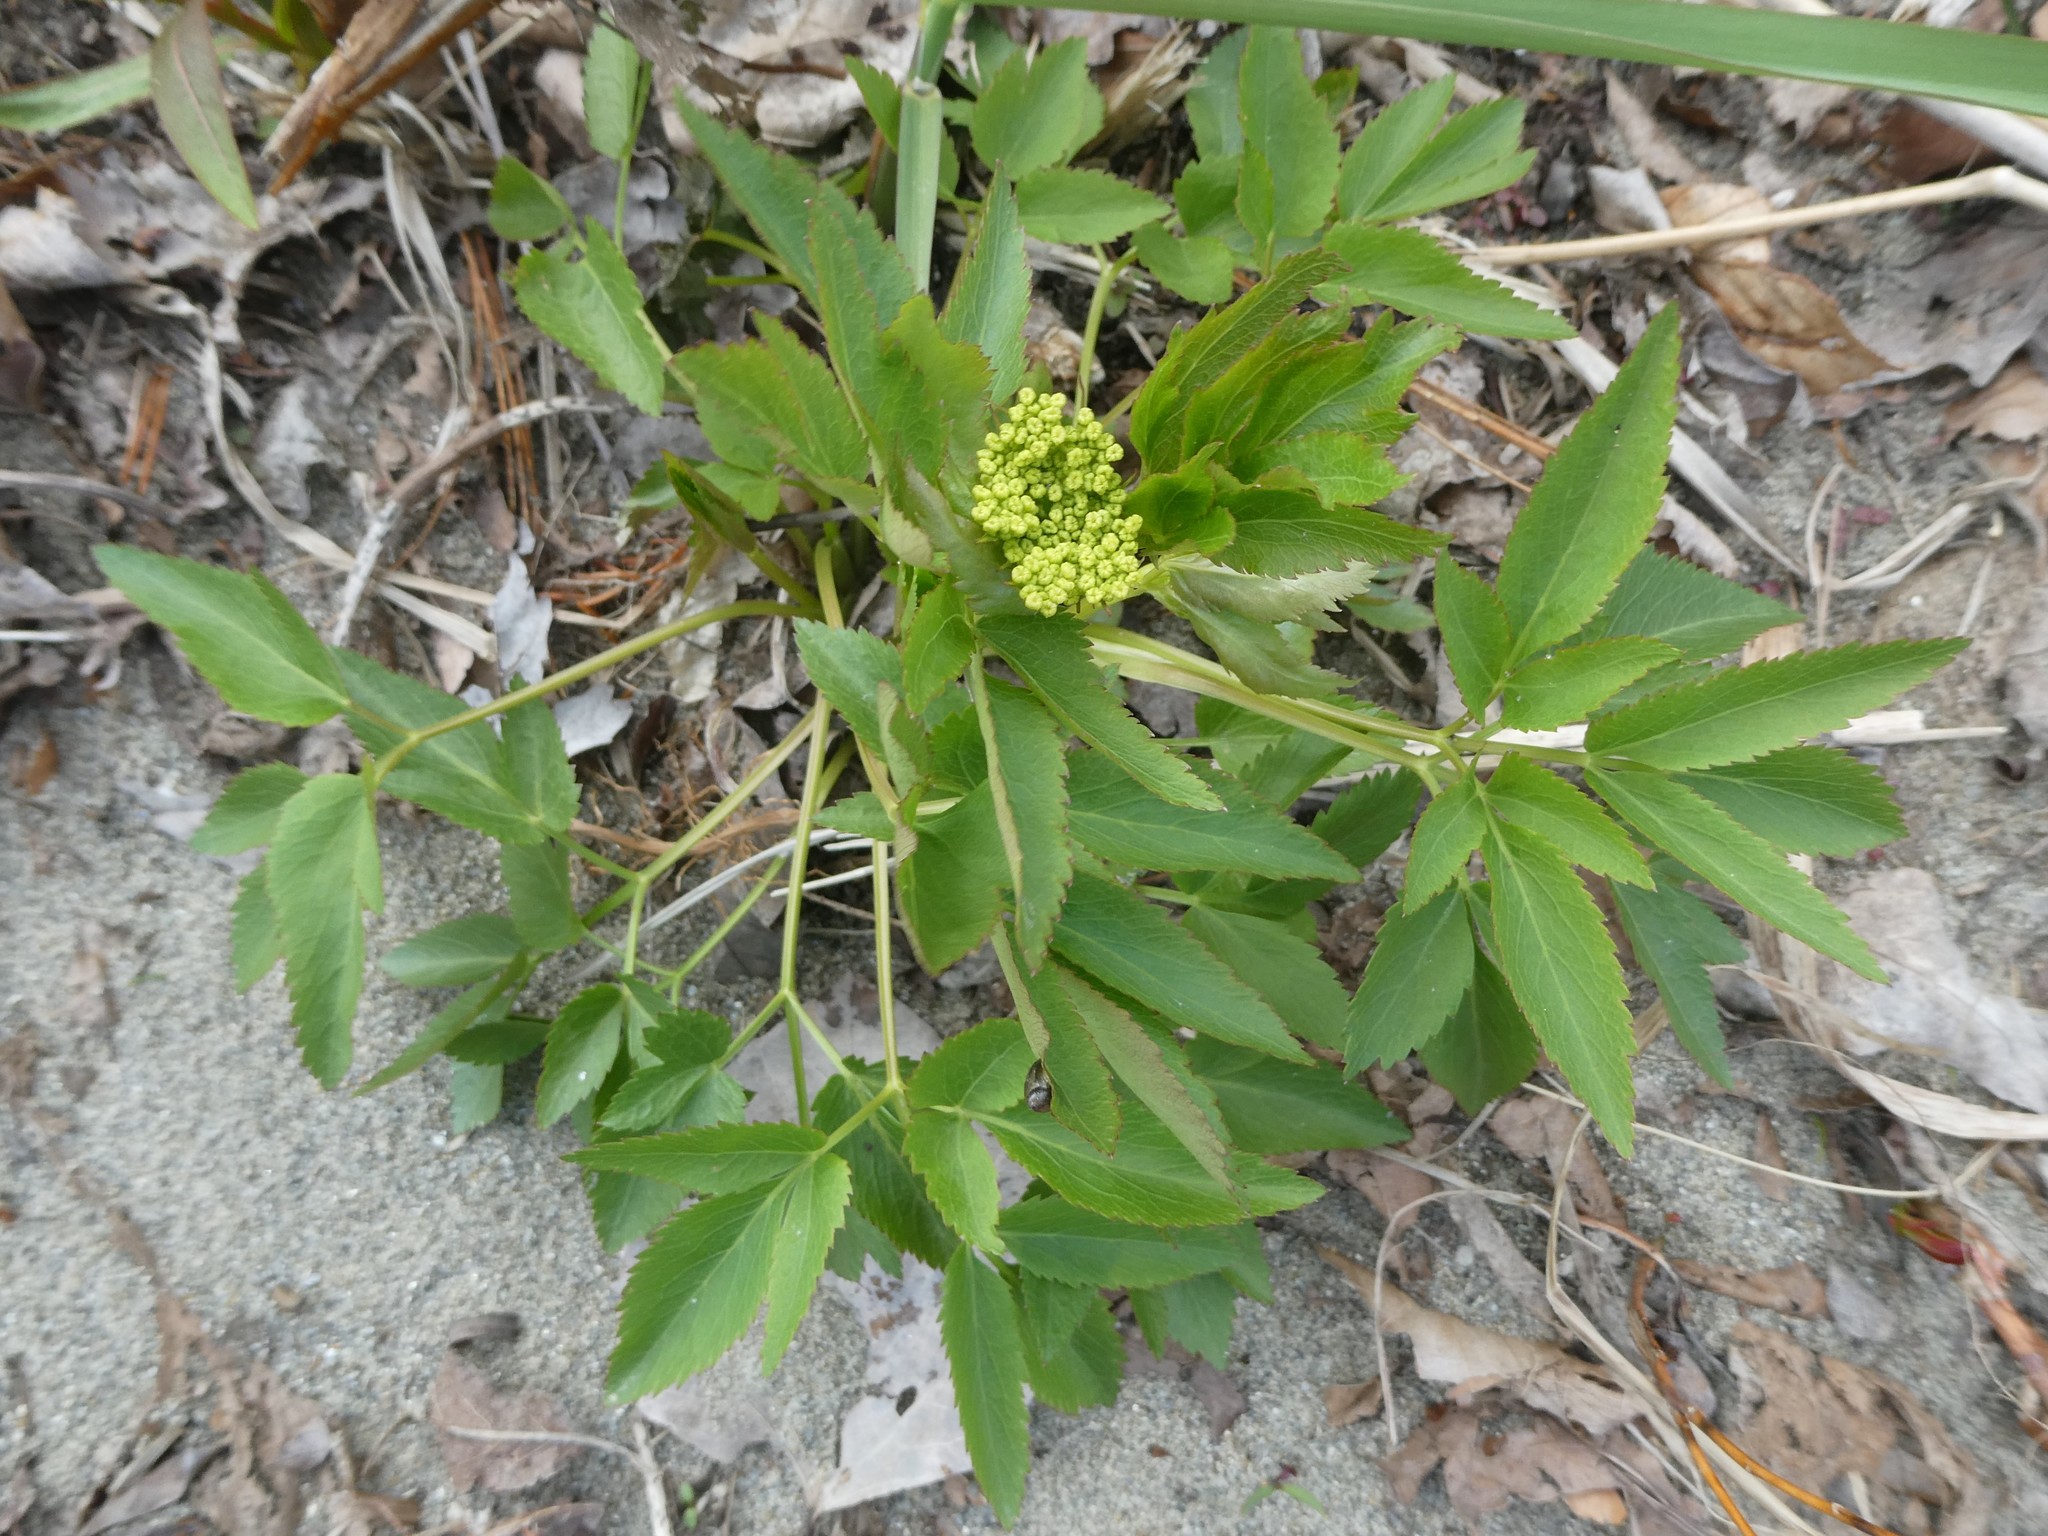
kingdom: Plantae
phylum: Tracheophyta
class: Magnoliopsida
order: Apiales
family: Apiaceae
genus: Zizia
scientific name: Zizia aurea
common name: Golden alexanders
